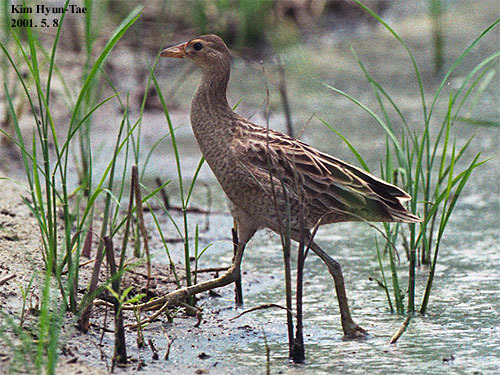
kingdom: Animalia
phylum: Chordata
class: Aves
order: Gruiformes
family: Rallidae
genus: Gallicrex
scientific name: Gallicrex cinerea
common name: Watercock
